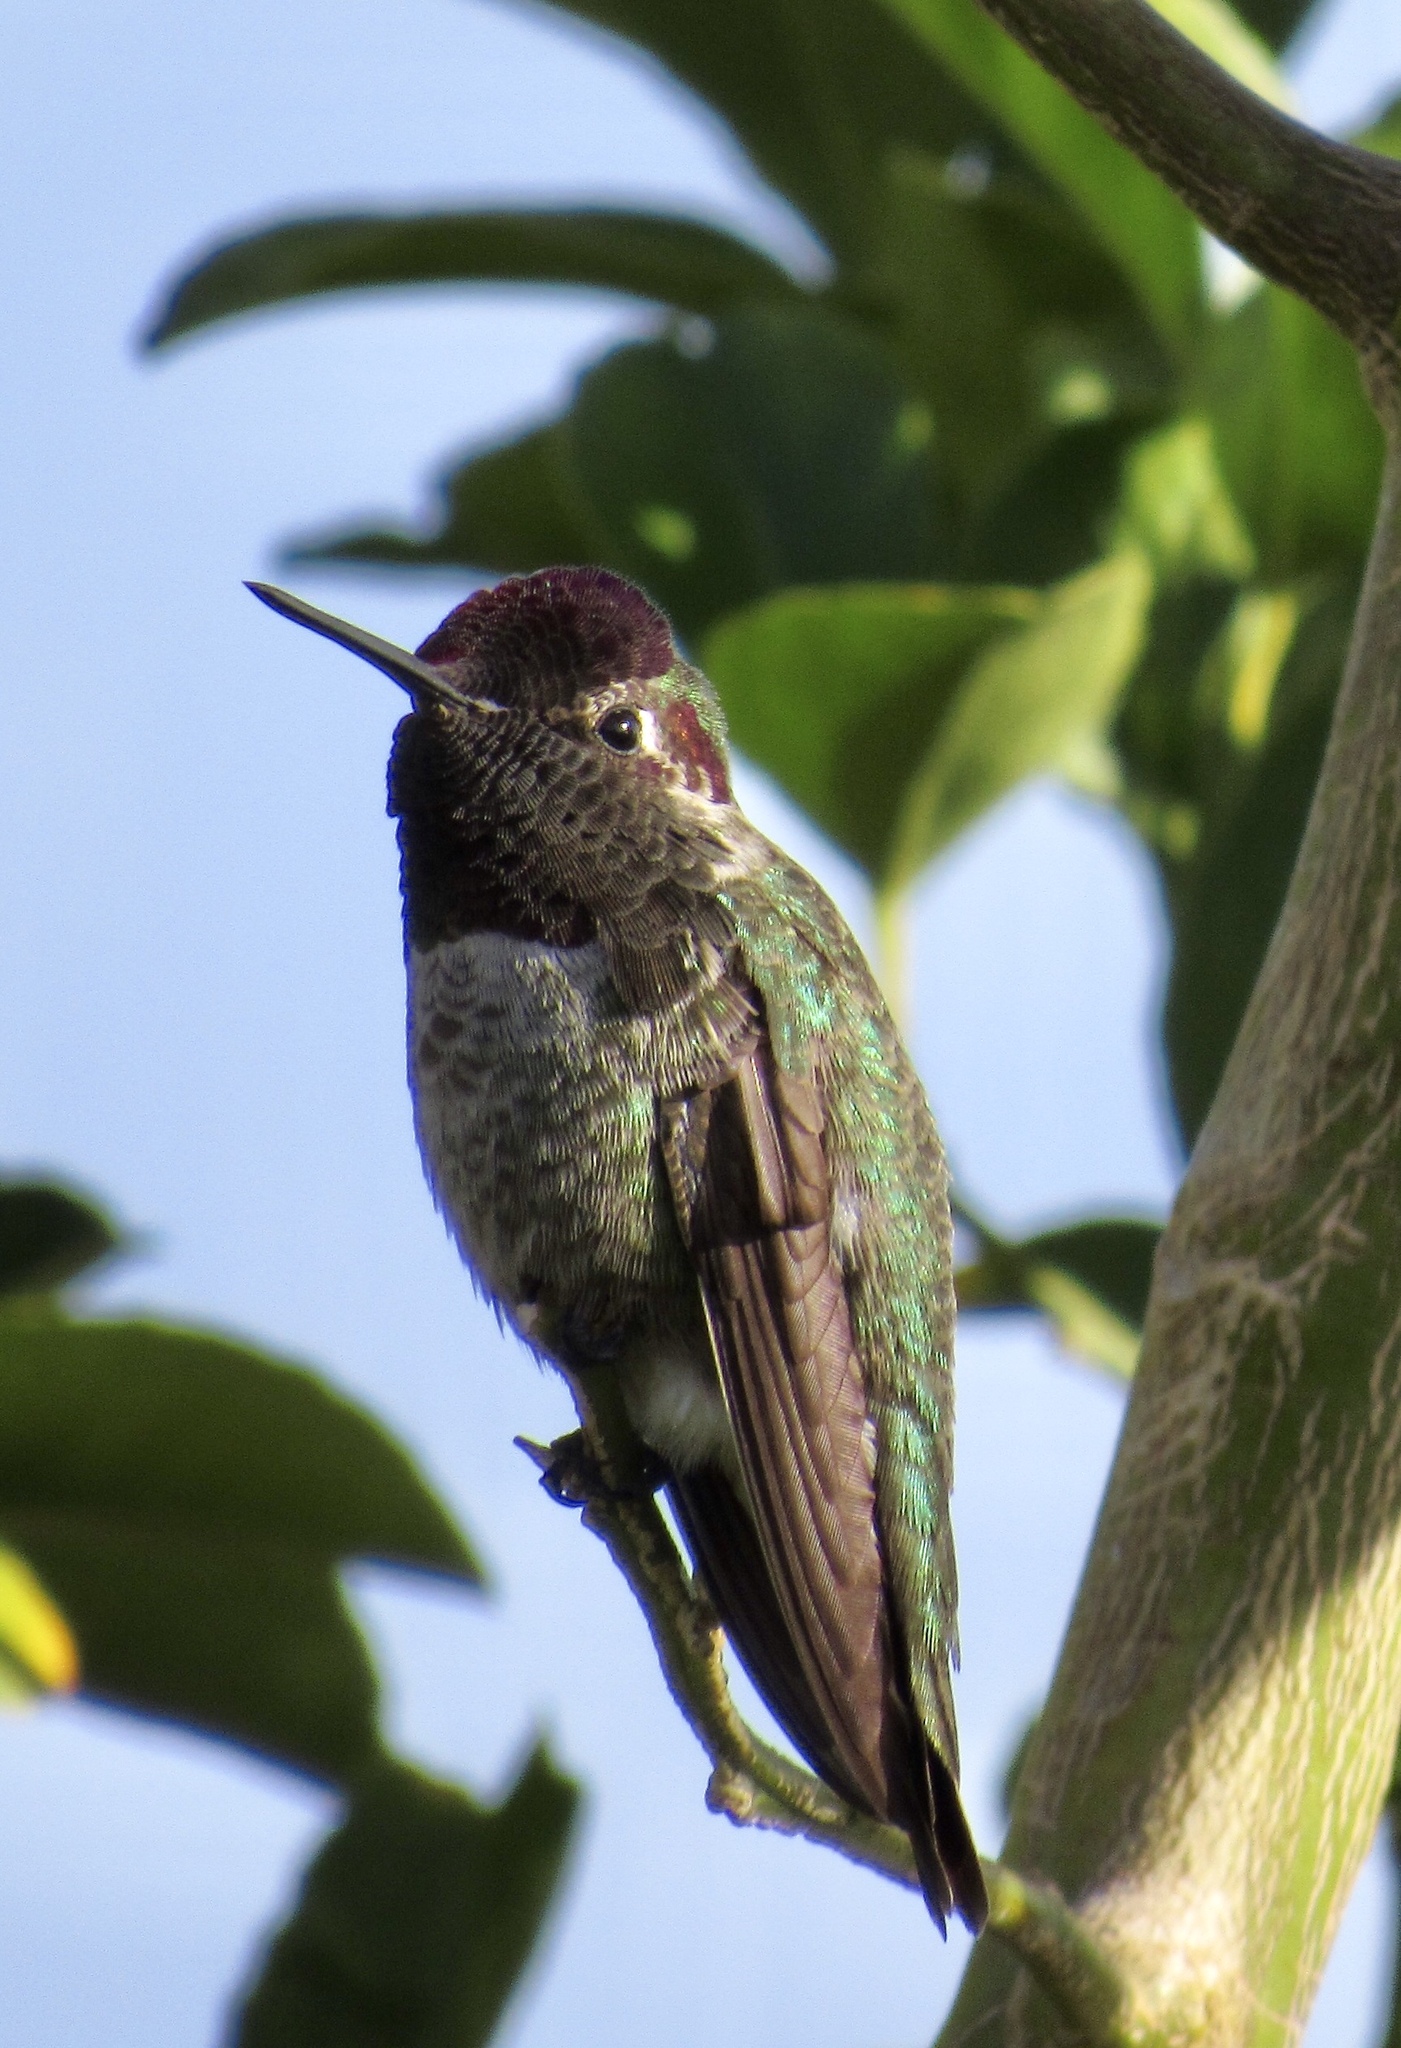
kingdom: Animalia
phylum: Chordata
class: Aves
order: Apodiformes
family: Trochilidae
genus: Calypte
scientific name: Calypte anna
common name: Anna's hummingbird
